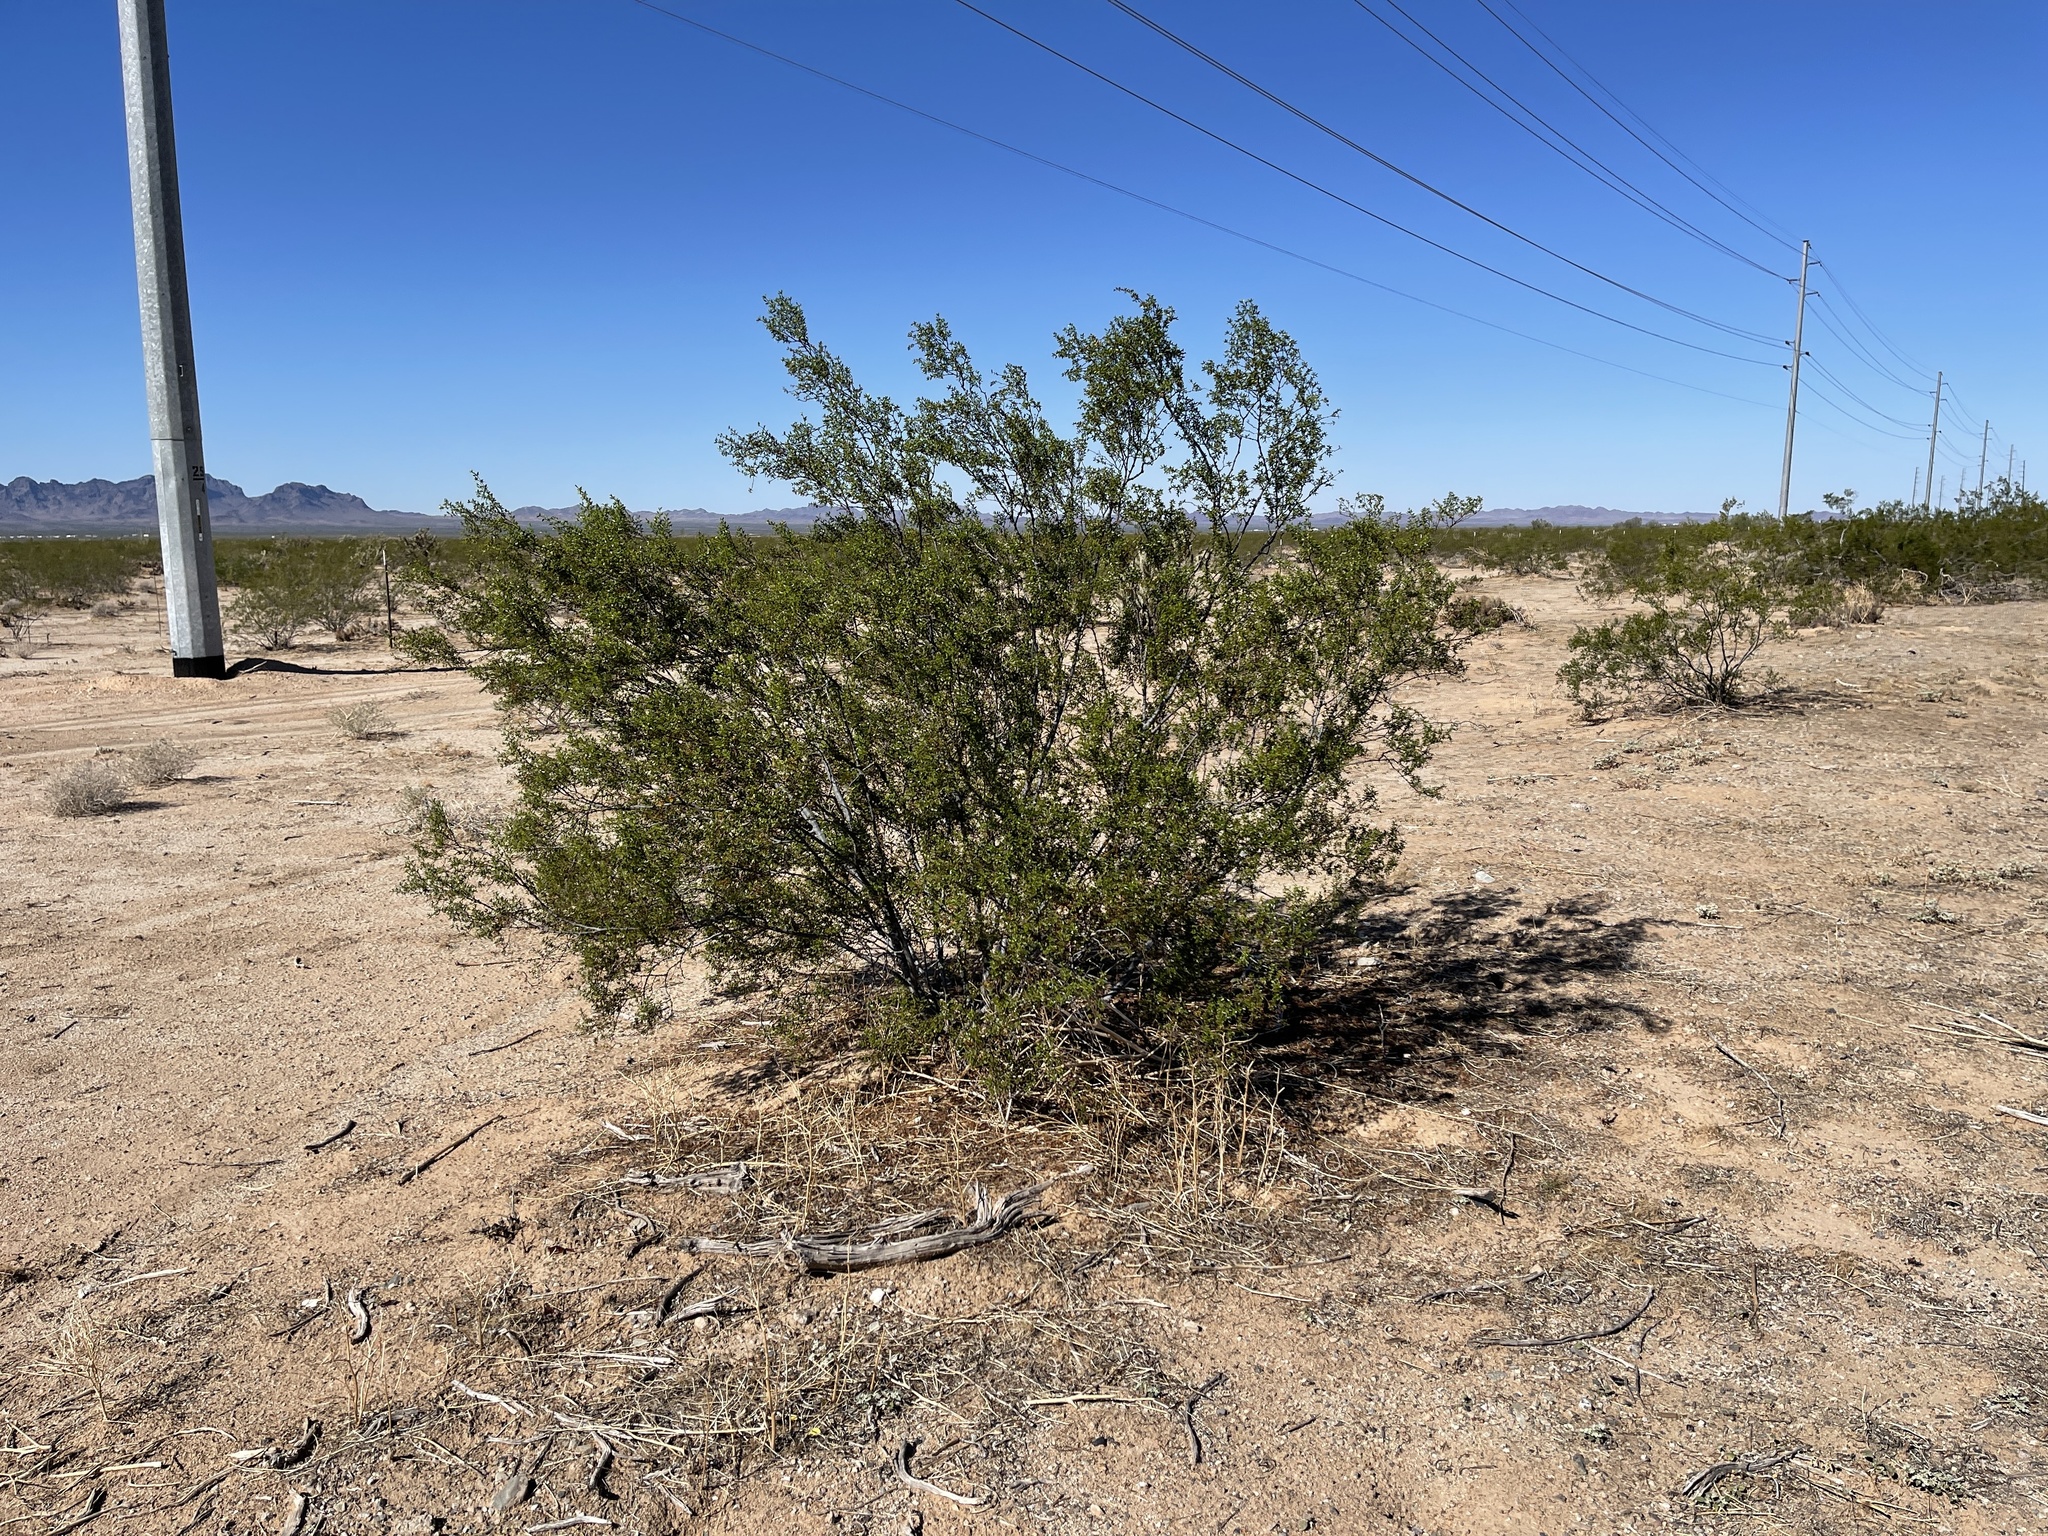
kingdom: Plantae
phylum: Tracheophyta
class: Magnoliopsida
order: Zygophyllales
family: Zygophyllaceae
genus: Larrea
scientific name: Larrea tridentata
